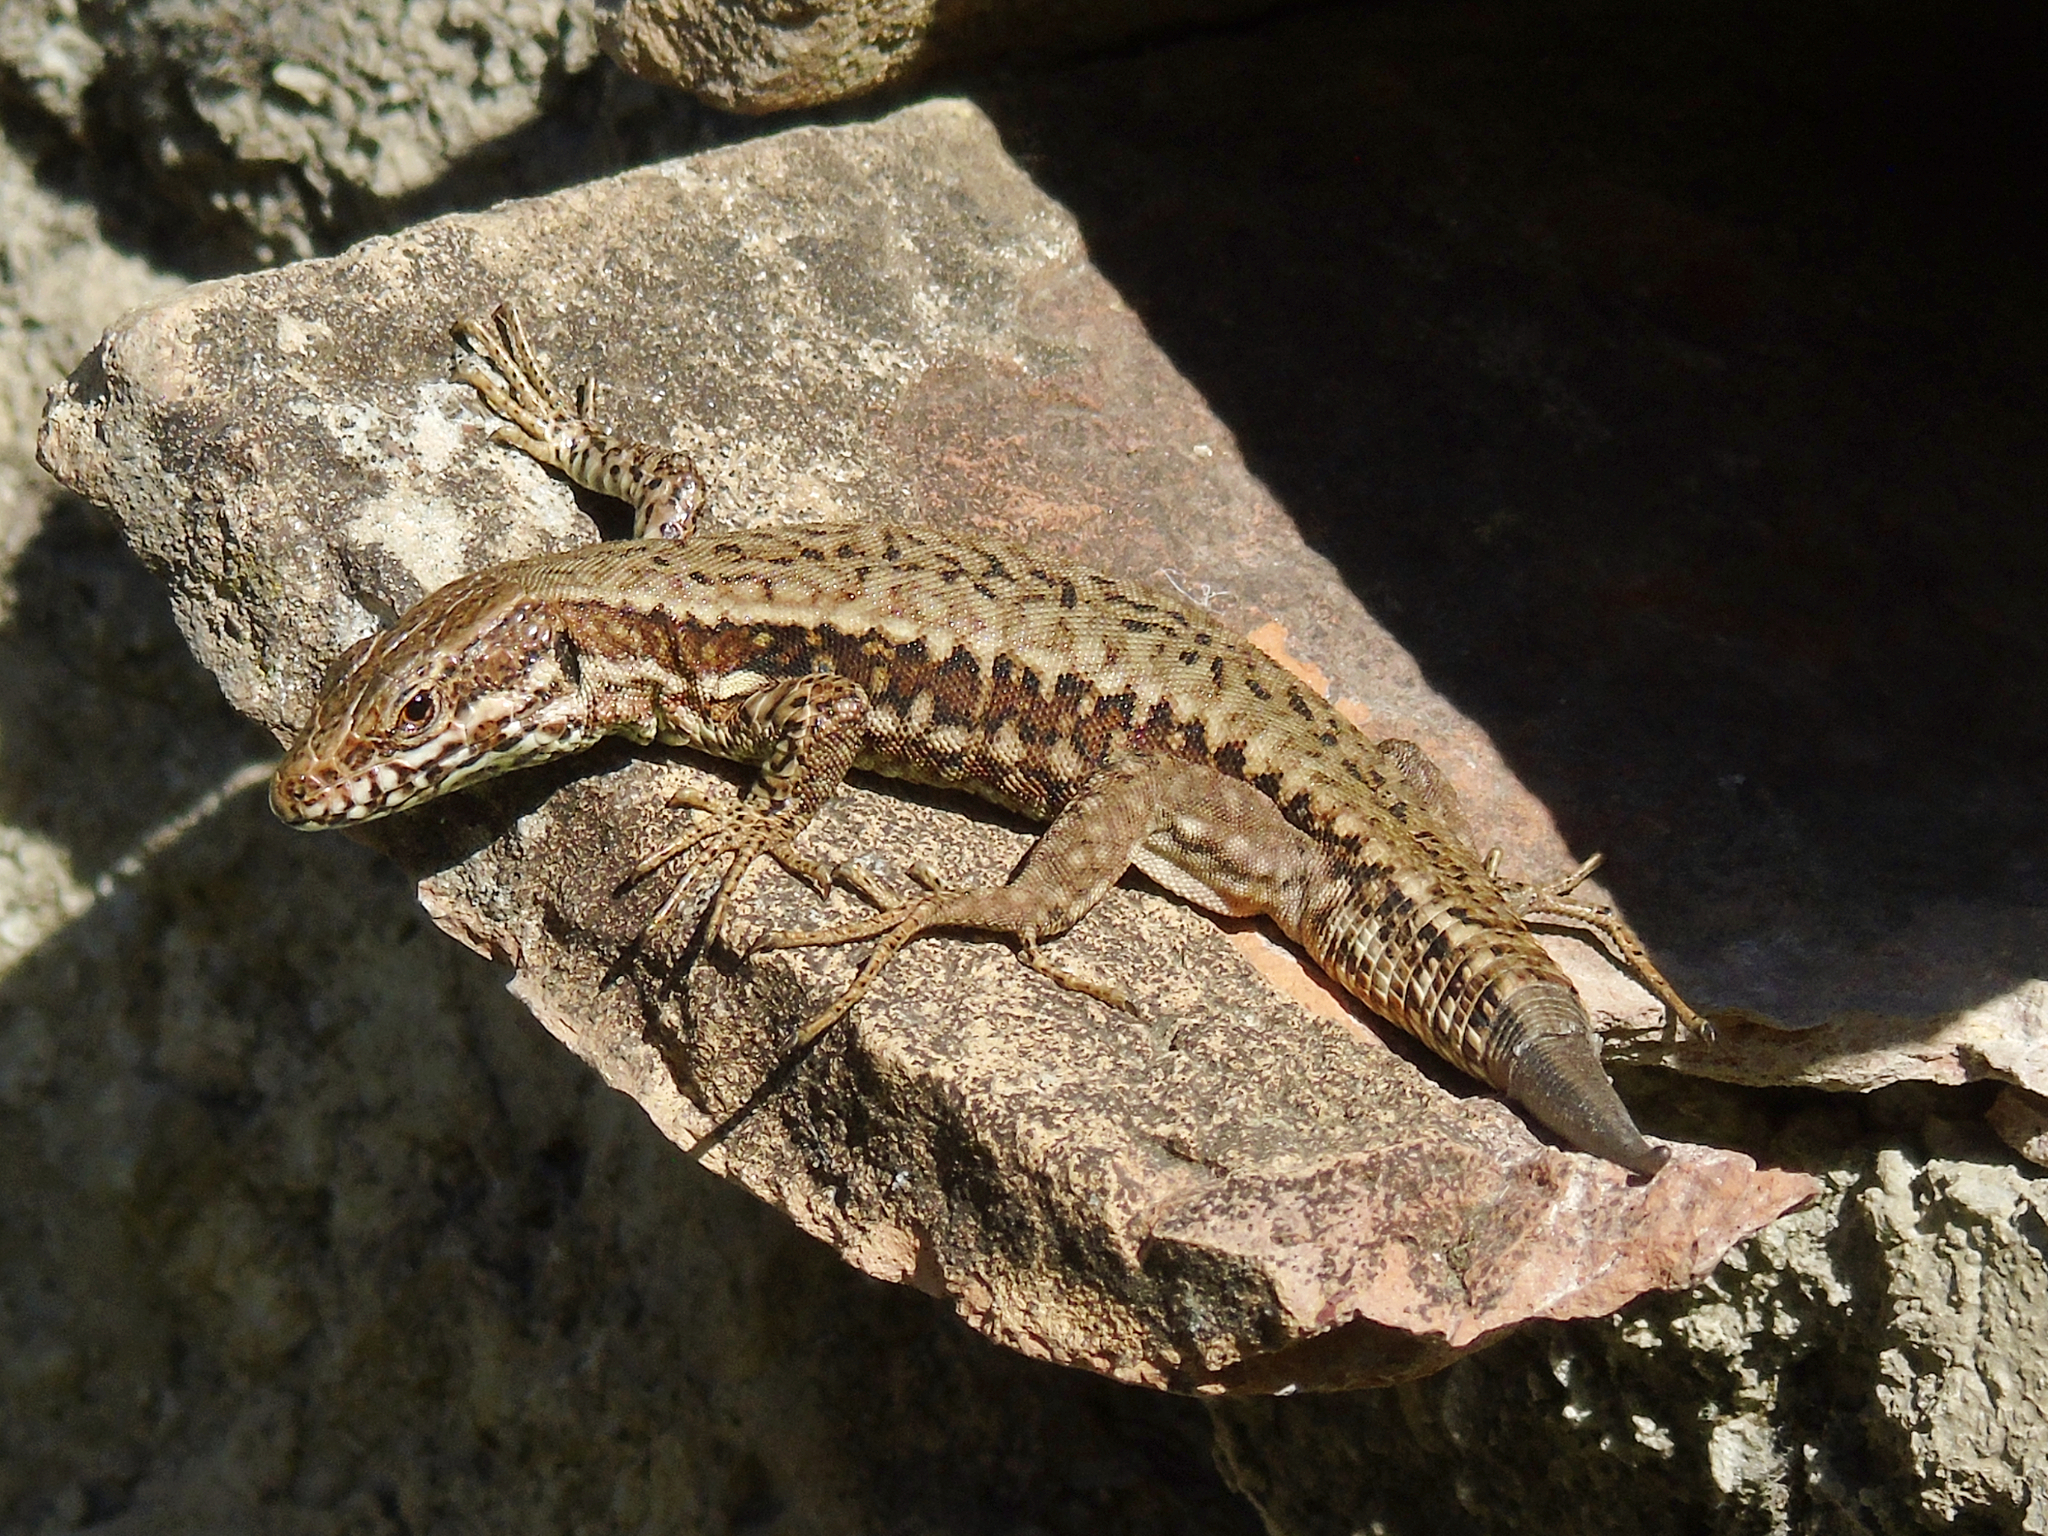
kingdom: Animalia
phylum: Chordata
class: Squamata
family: Lacertidae
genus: Podarcis
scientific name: Podarcis muralis
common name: Common wall lizard
